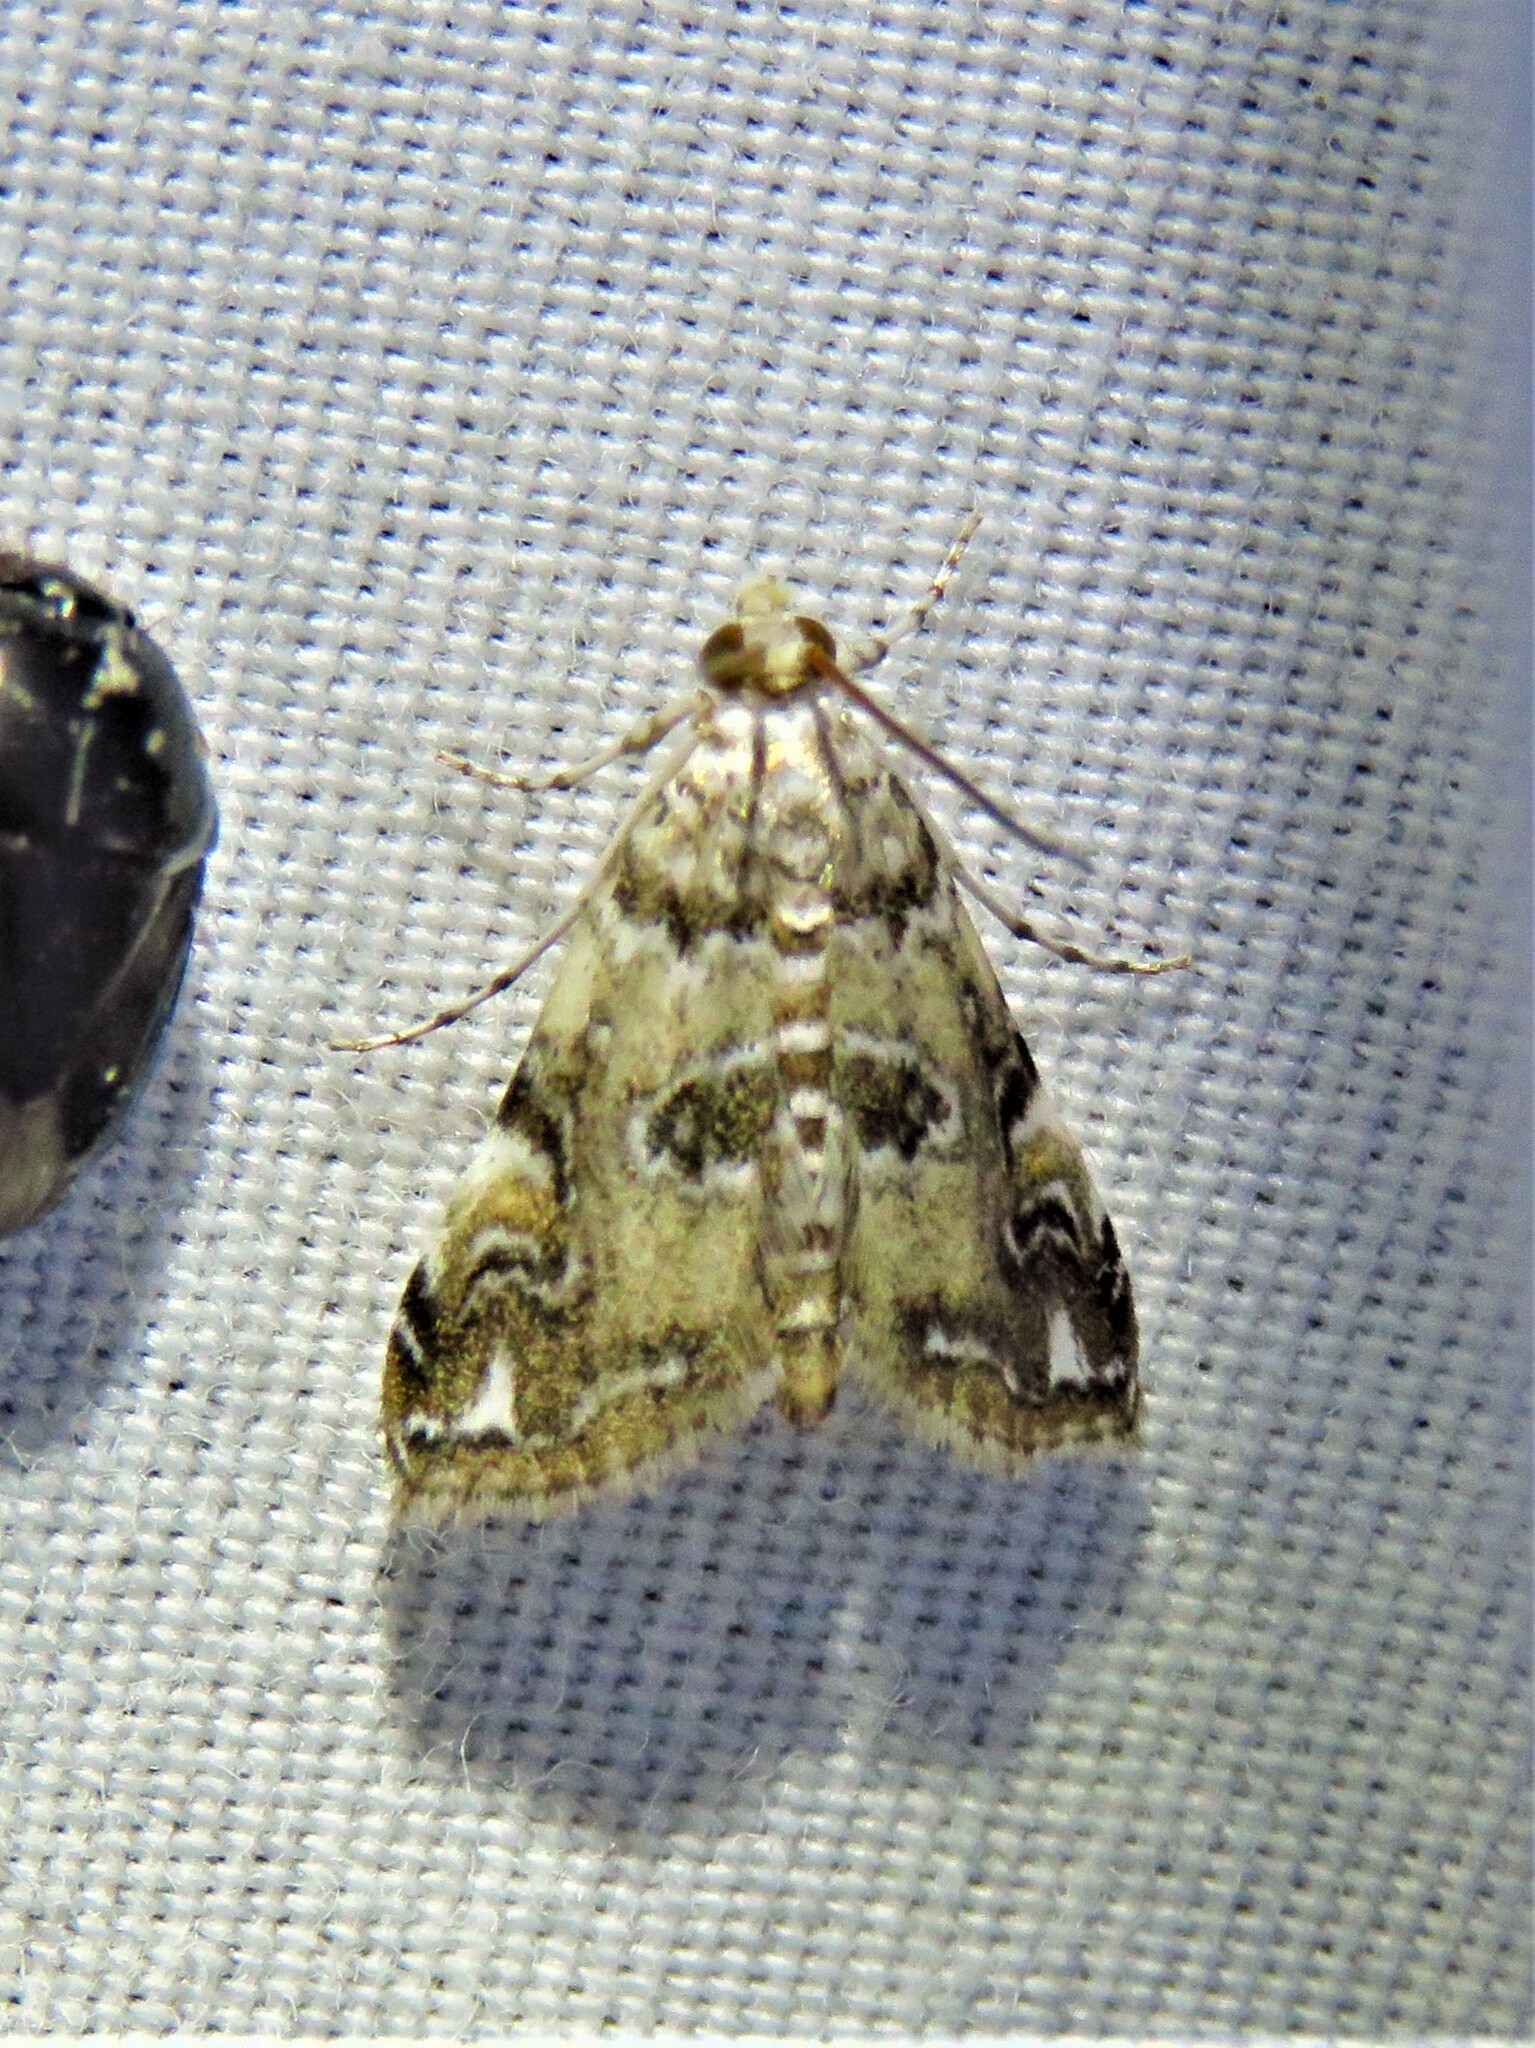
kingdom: Animalia
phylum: Arthropoda
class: Insecta
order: Lepidoptera
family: Crambidae
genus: Elophila
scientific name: Elophila gyralis
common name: Waterlily borer moth
